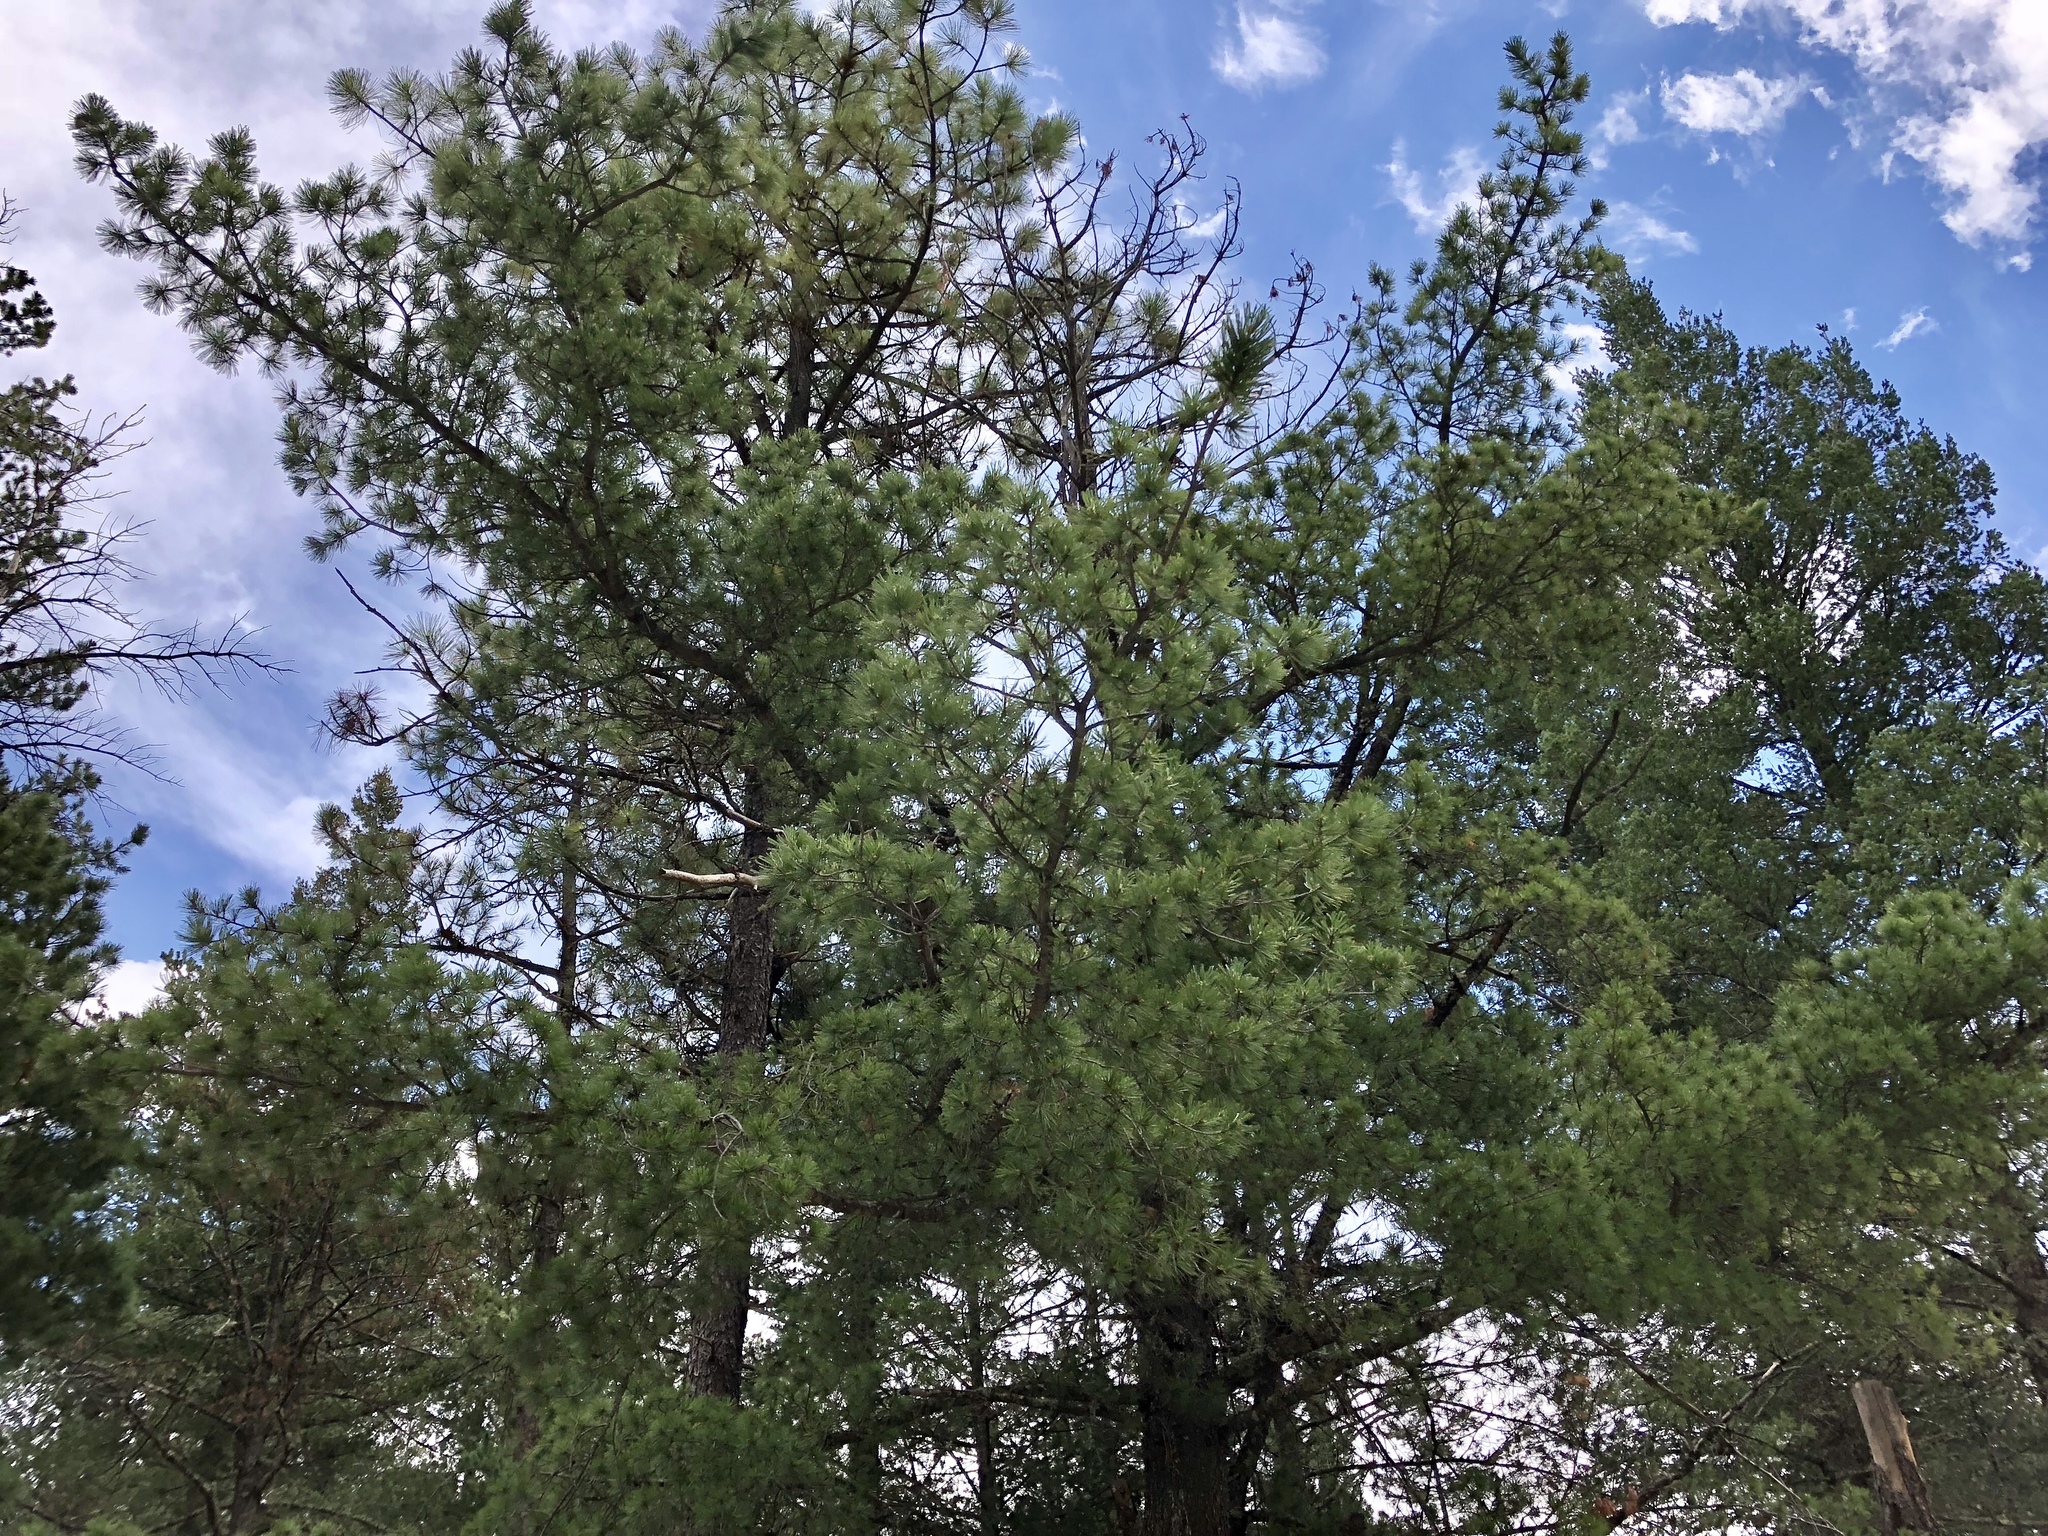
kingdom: Plantae
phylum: Tracheophyta
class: Pinopsida
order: Pinales
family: Pinaceae
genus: Pinus
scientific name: Pinus ponderosa
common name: Western yellow-pine
